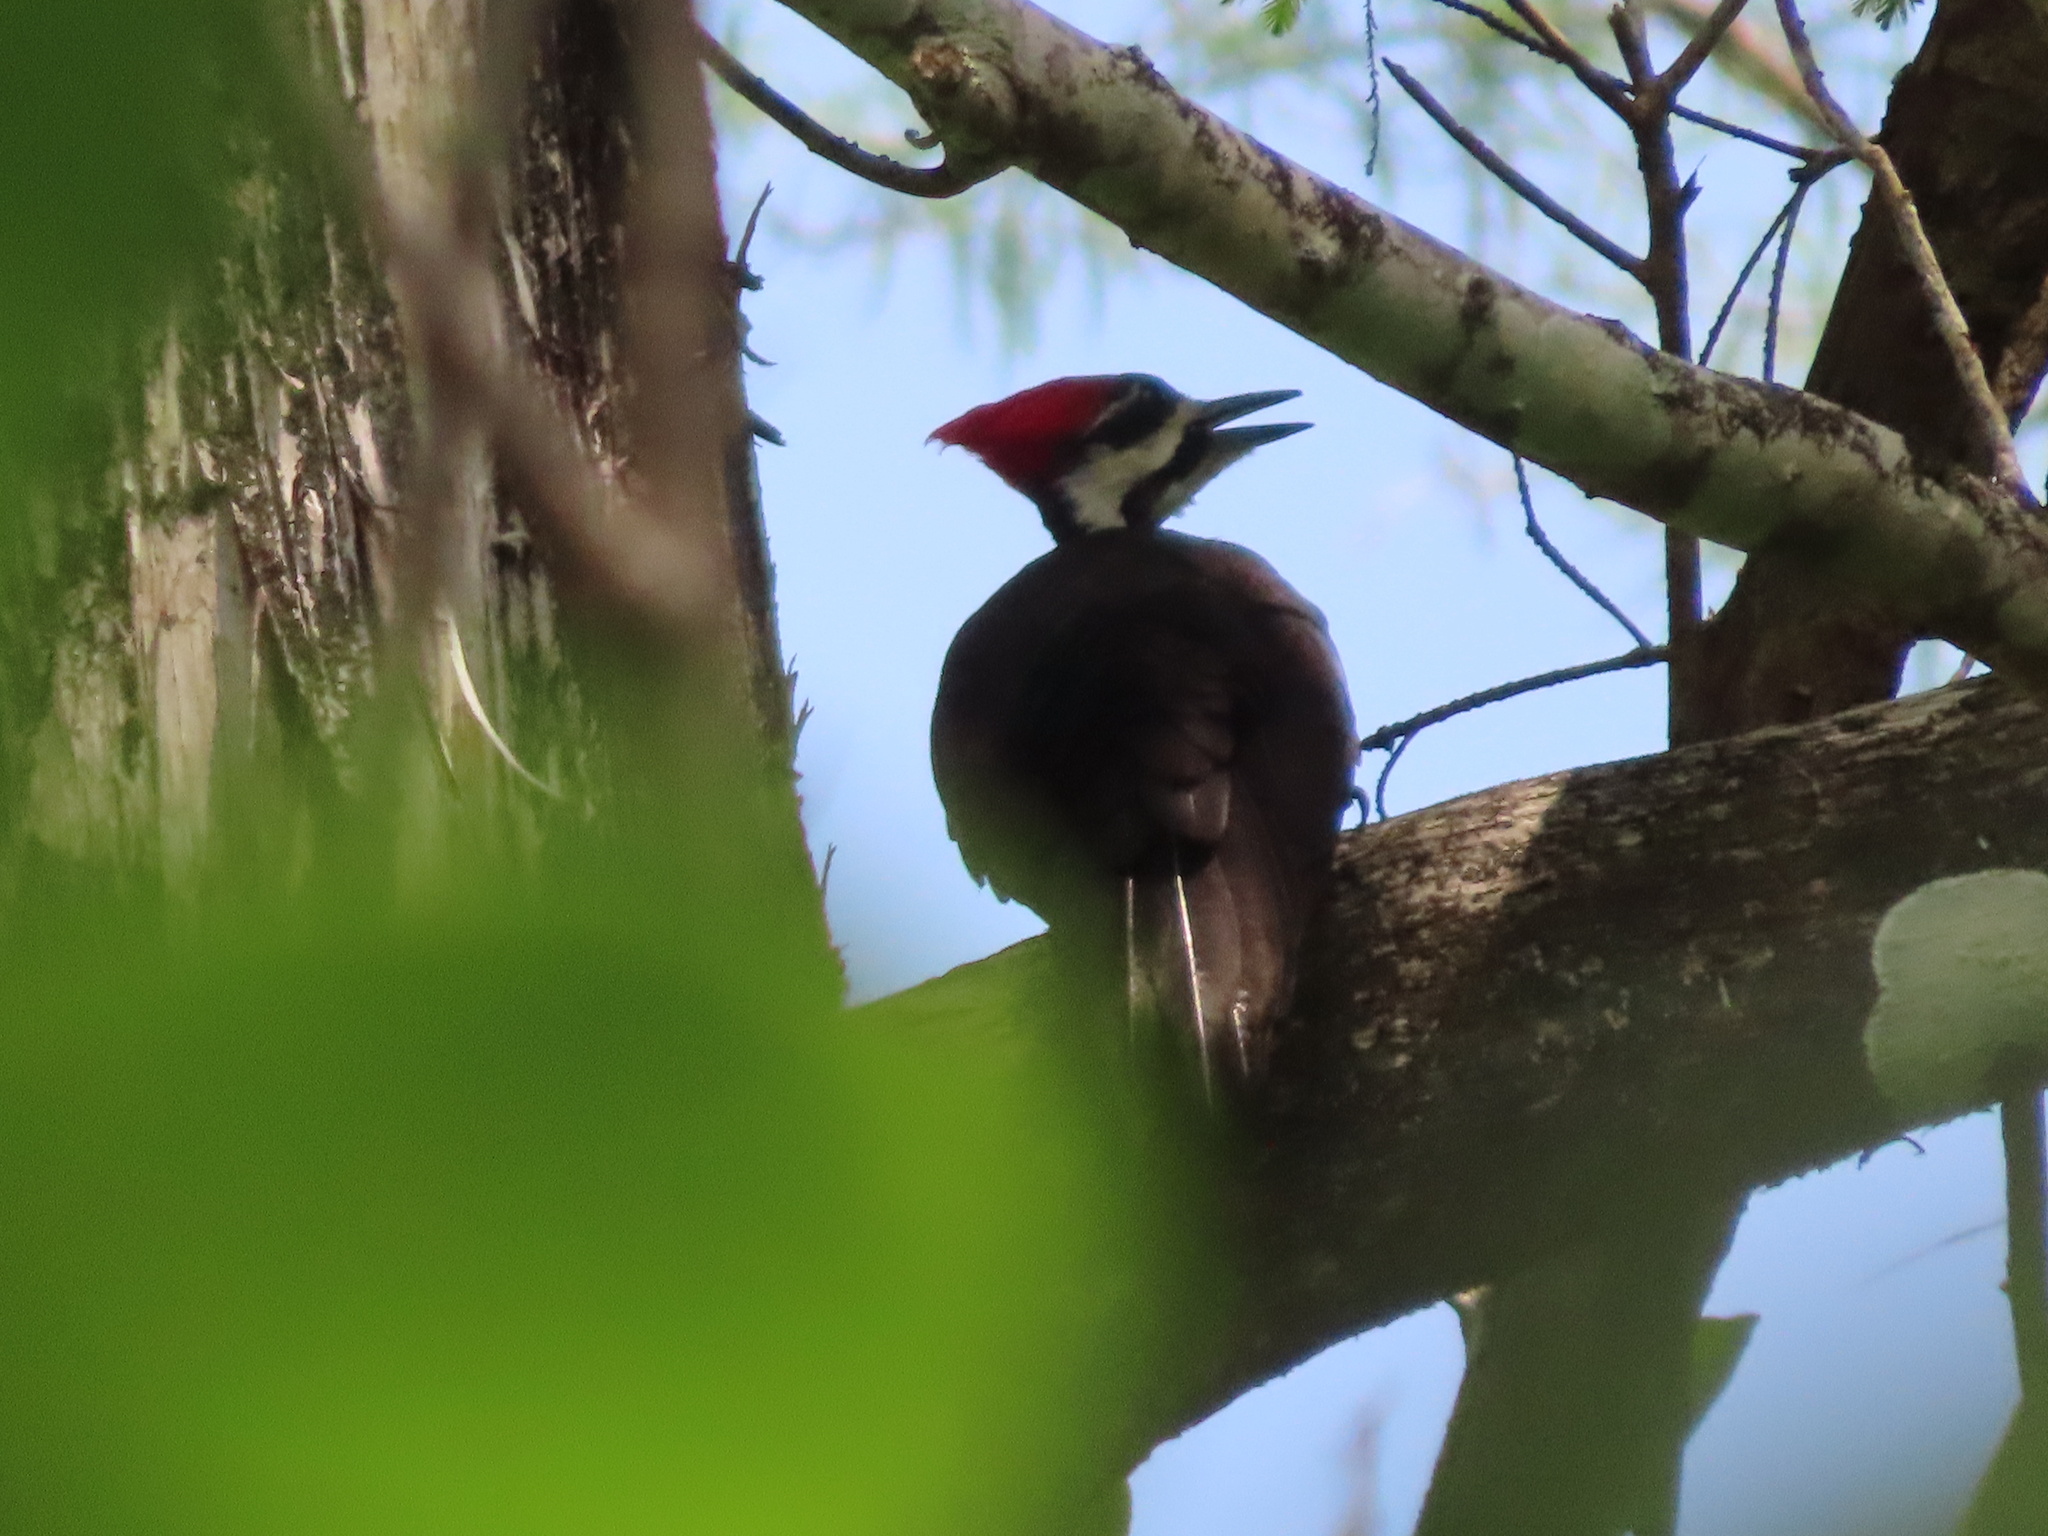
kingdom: Animalia
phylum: Chordata
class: Aves
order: Piciformes
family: Picidae
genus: Dryocopus
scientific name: Dryocopus pileatus
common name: Pileated woodpecker
